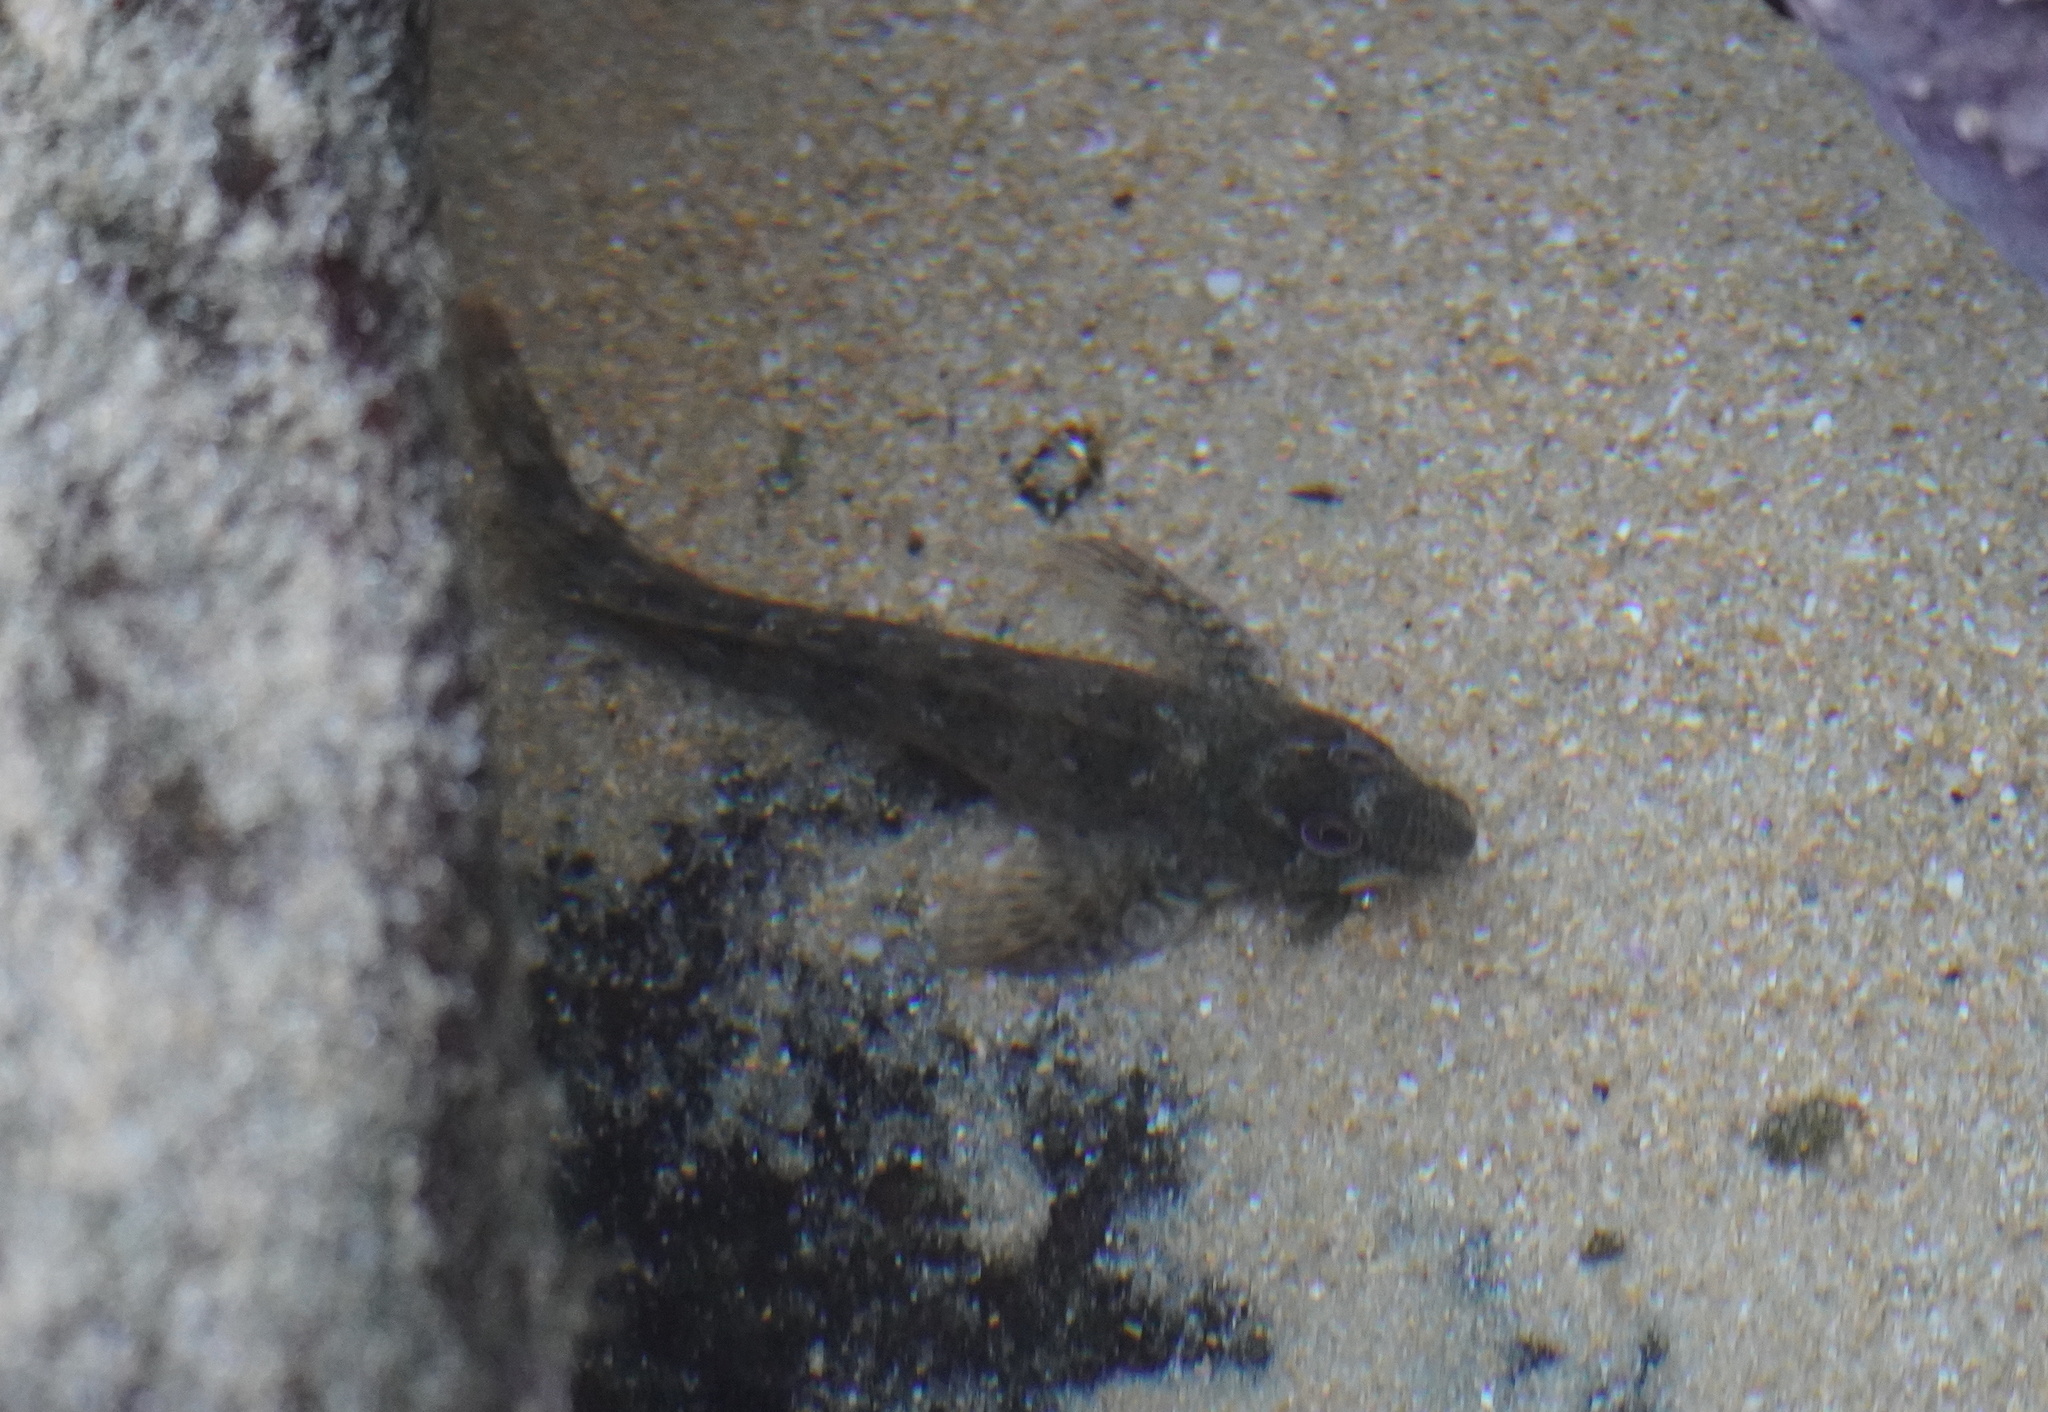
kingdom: Animalia
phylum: Chordata
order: Perciformes
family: Blenniidae
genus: Lipophrys
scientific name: Lipophrys pholis
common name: Shanny
